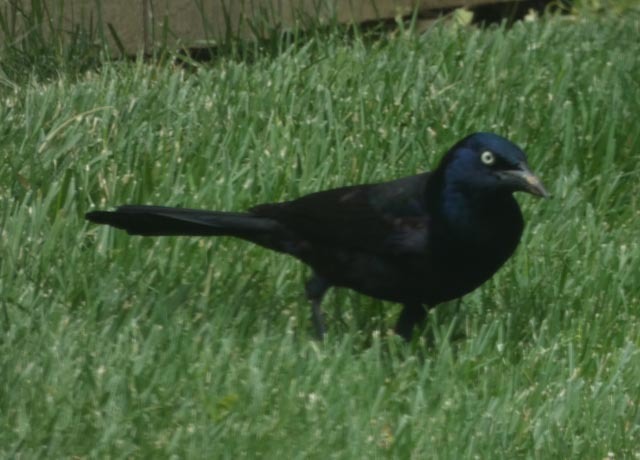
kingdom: Animalia
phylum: Chordata
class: Aves
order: Passeriformes
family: Icteridae
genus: Quiscalus
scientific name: Quiscalus quiscula
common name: Common grackle
